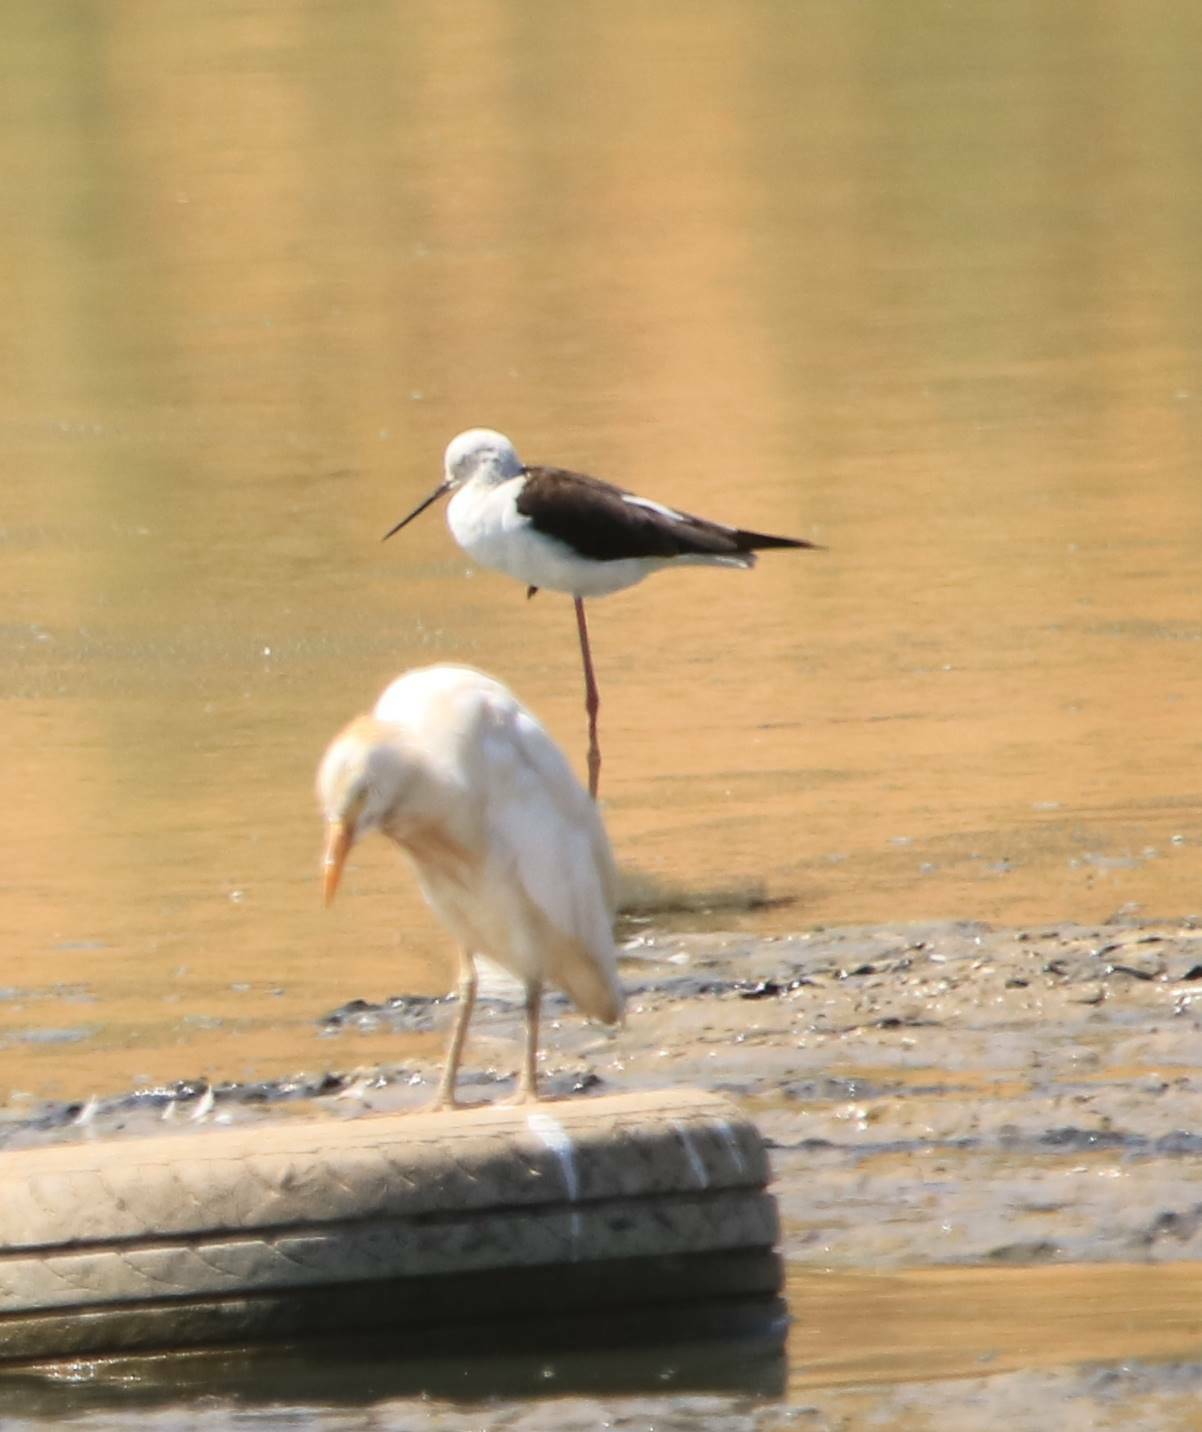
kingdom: Animalia
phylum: Chordata
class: Aves
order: Charadriiformes
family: Recurvirostridae
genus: Himantopus
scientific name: Himantopus himantopus
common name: Black-winged stilt
